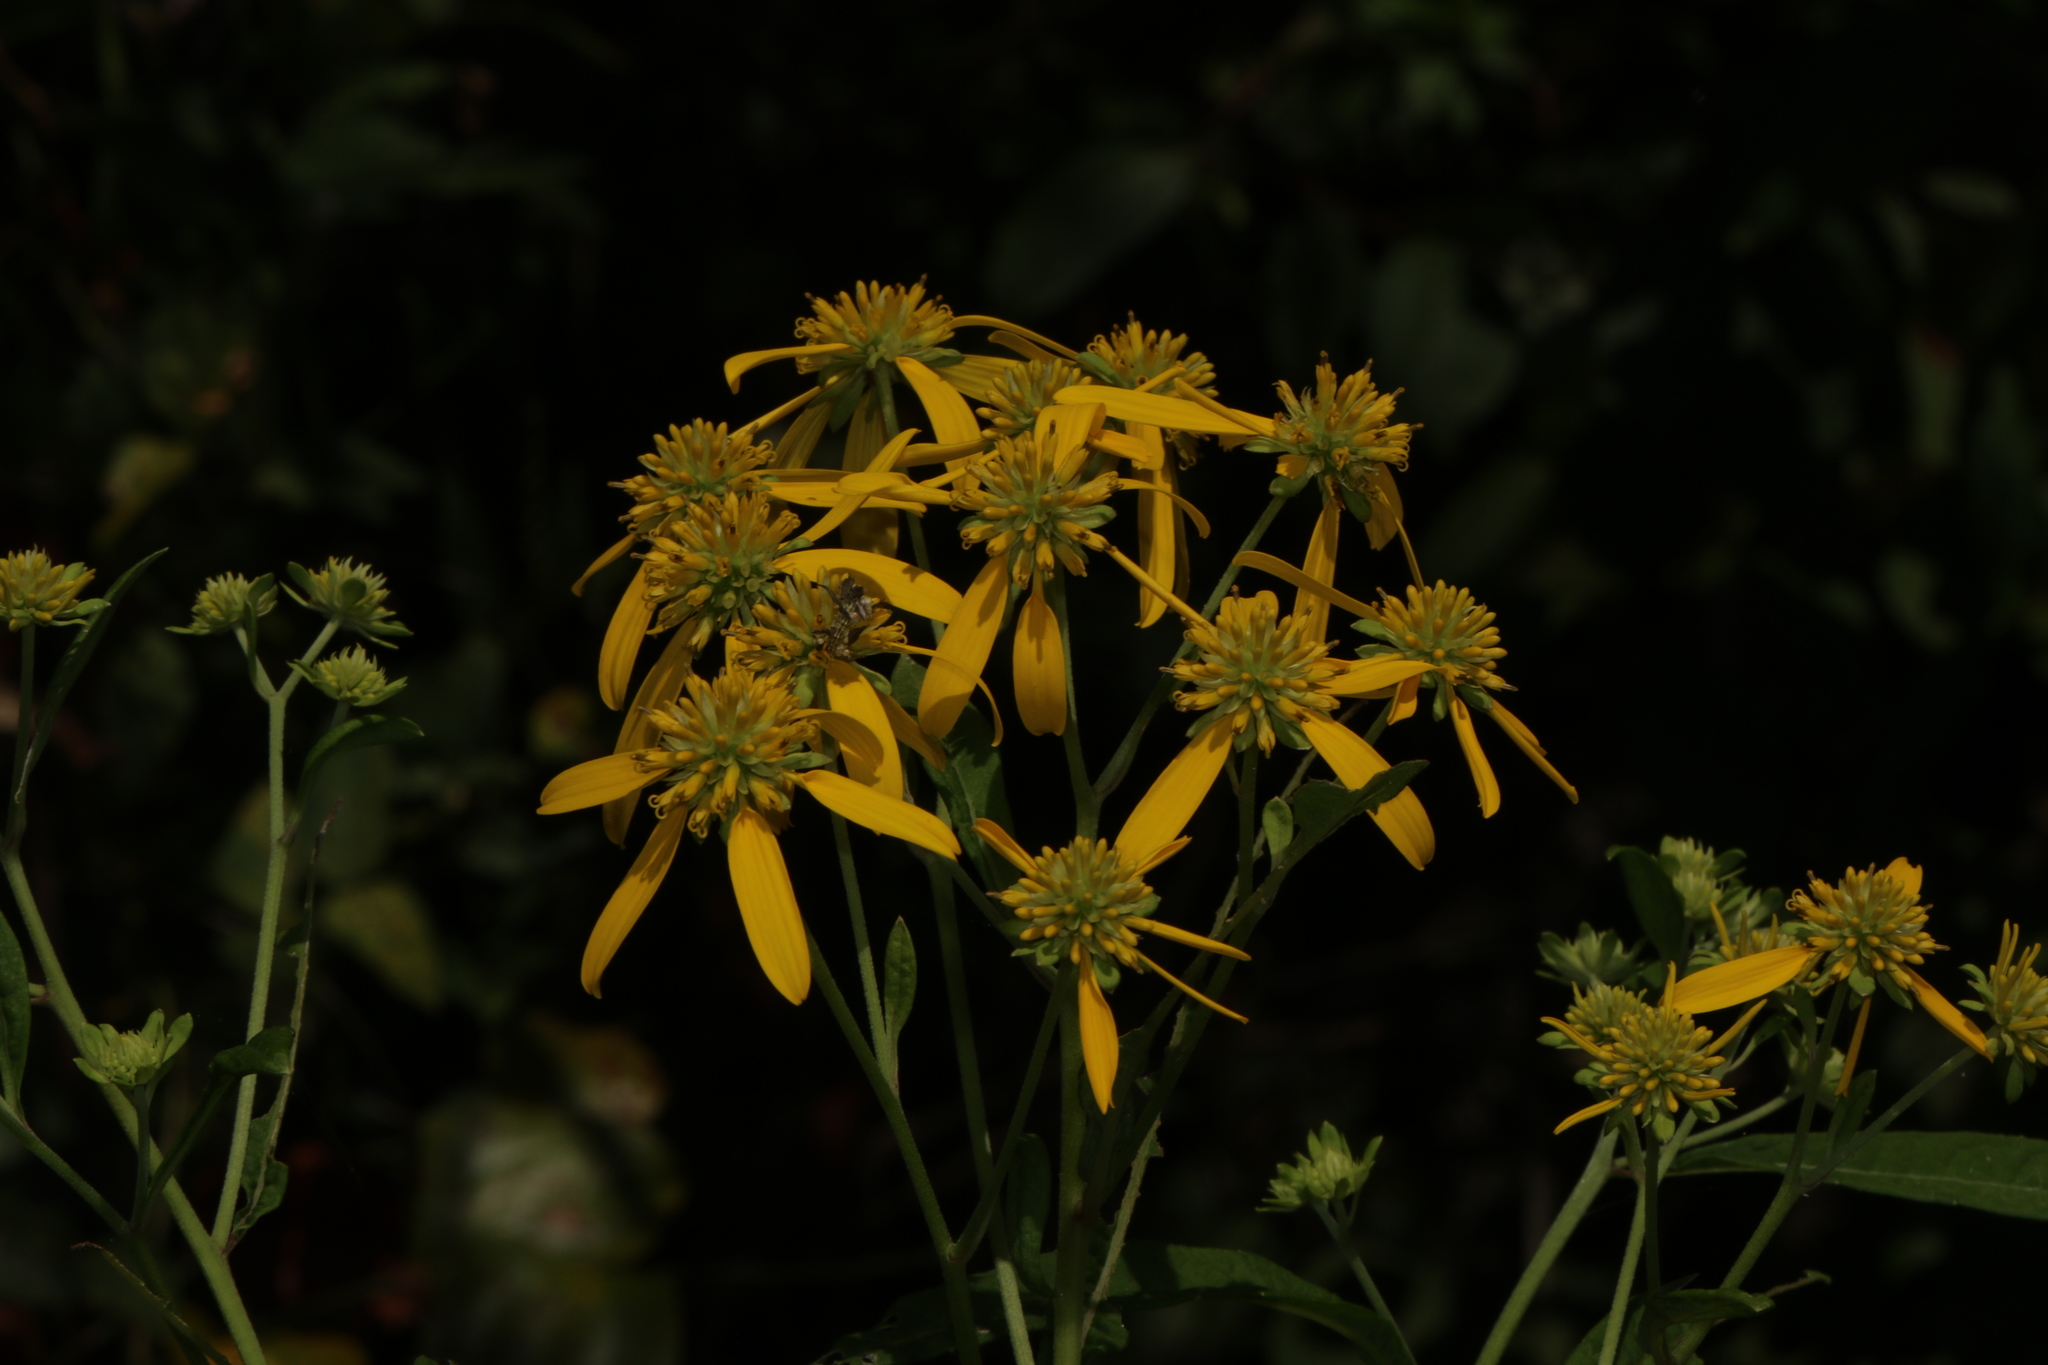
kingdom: Plantae
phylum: Tracheophyta
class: Magnoliopsida
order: Asterales
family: Asteraceae
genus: Verbesina
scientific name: Verbesina alternifolia
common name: Wingstem
